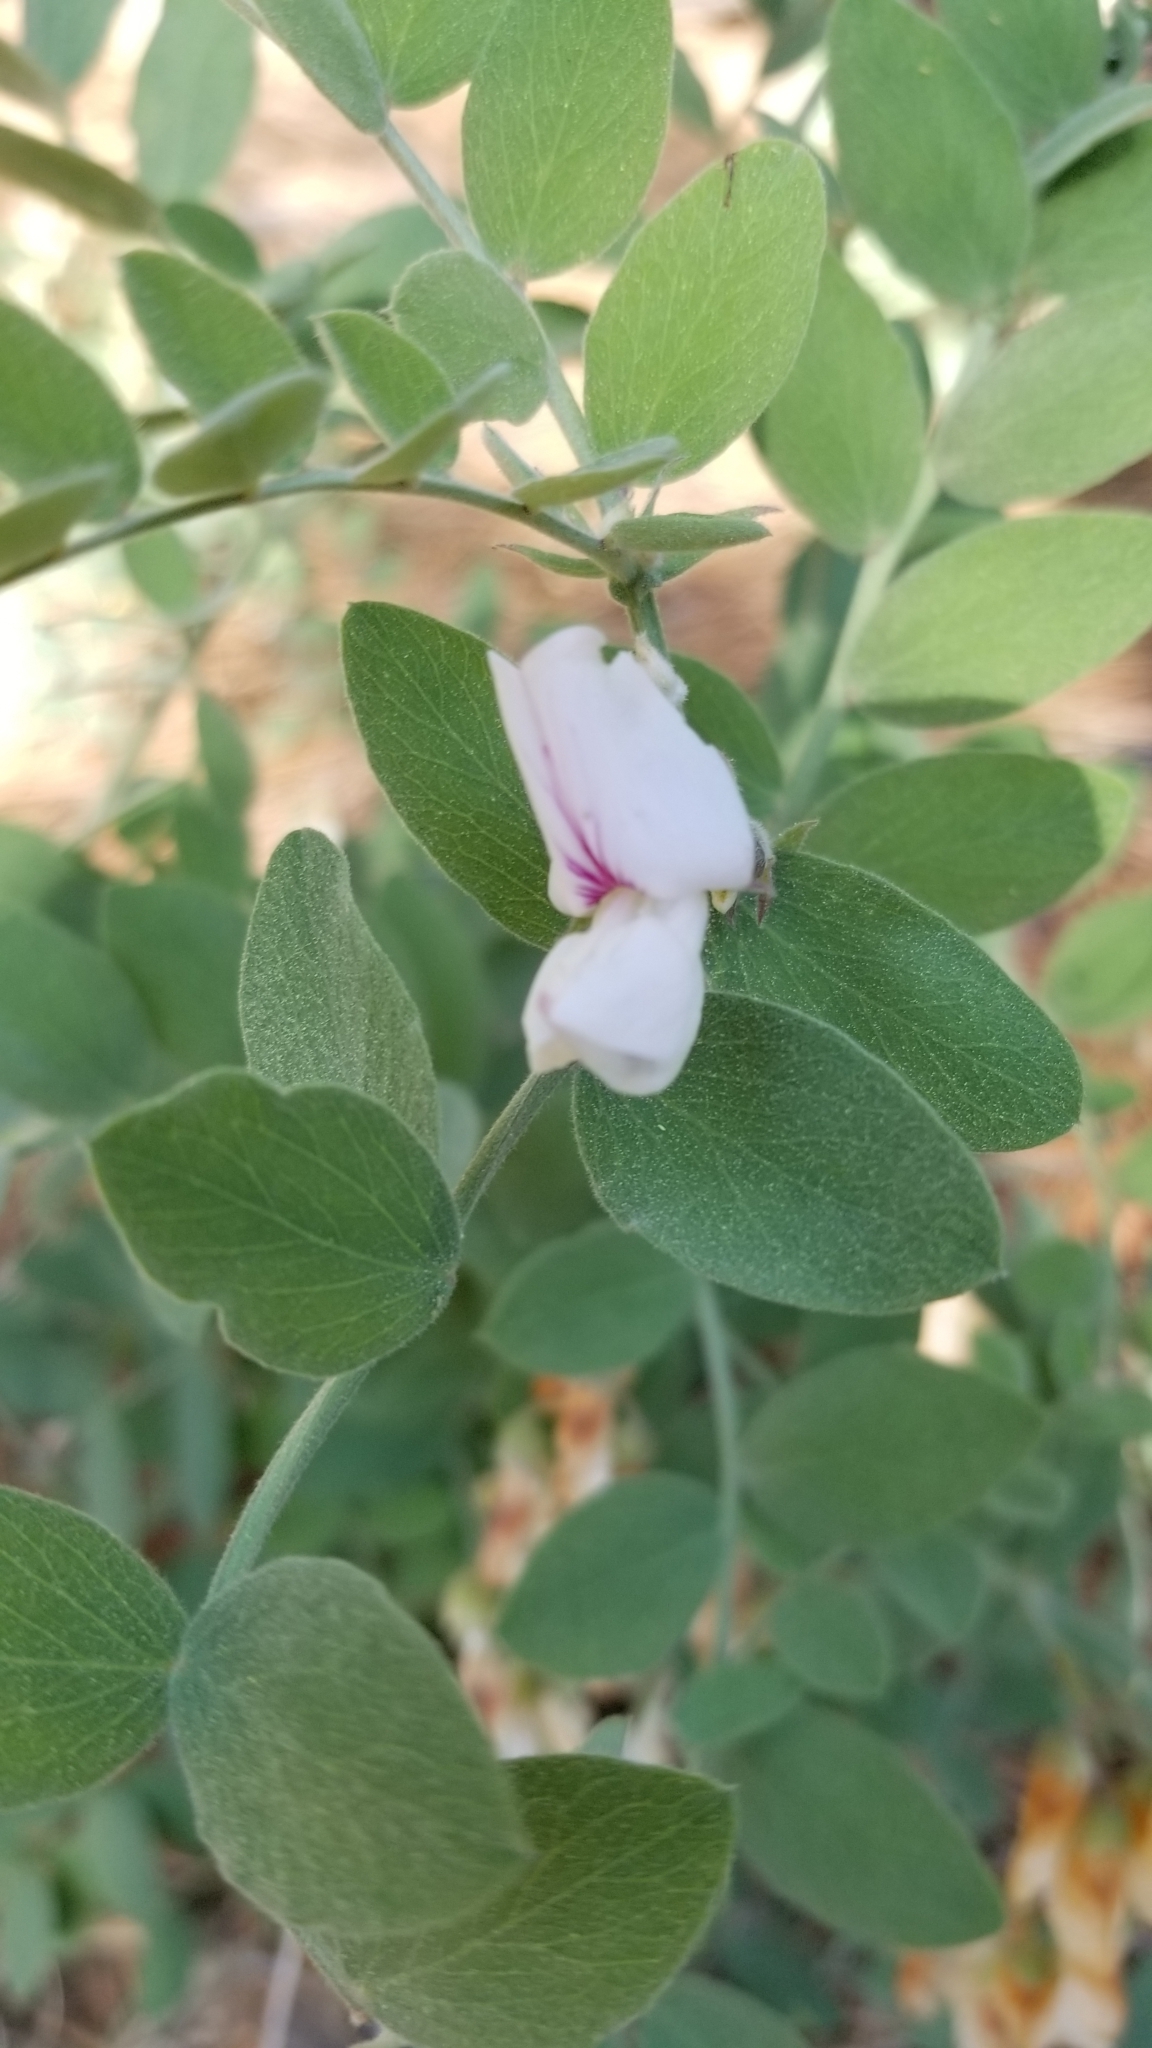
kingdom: Plantae
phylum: Tracheophyta
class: Magnoliopsida
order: Fabales
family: Fabaceae
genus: Lathyrus
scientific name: Lathyrus vestitus
